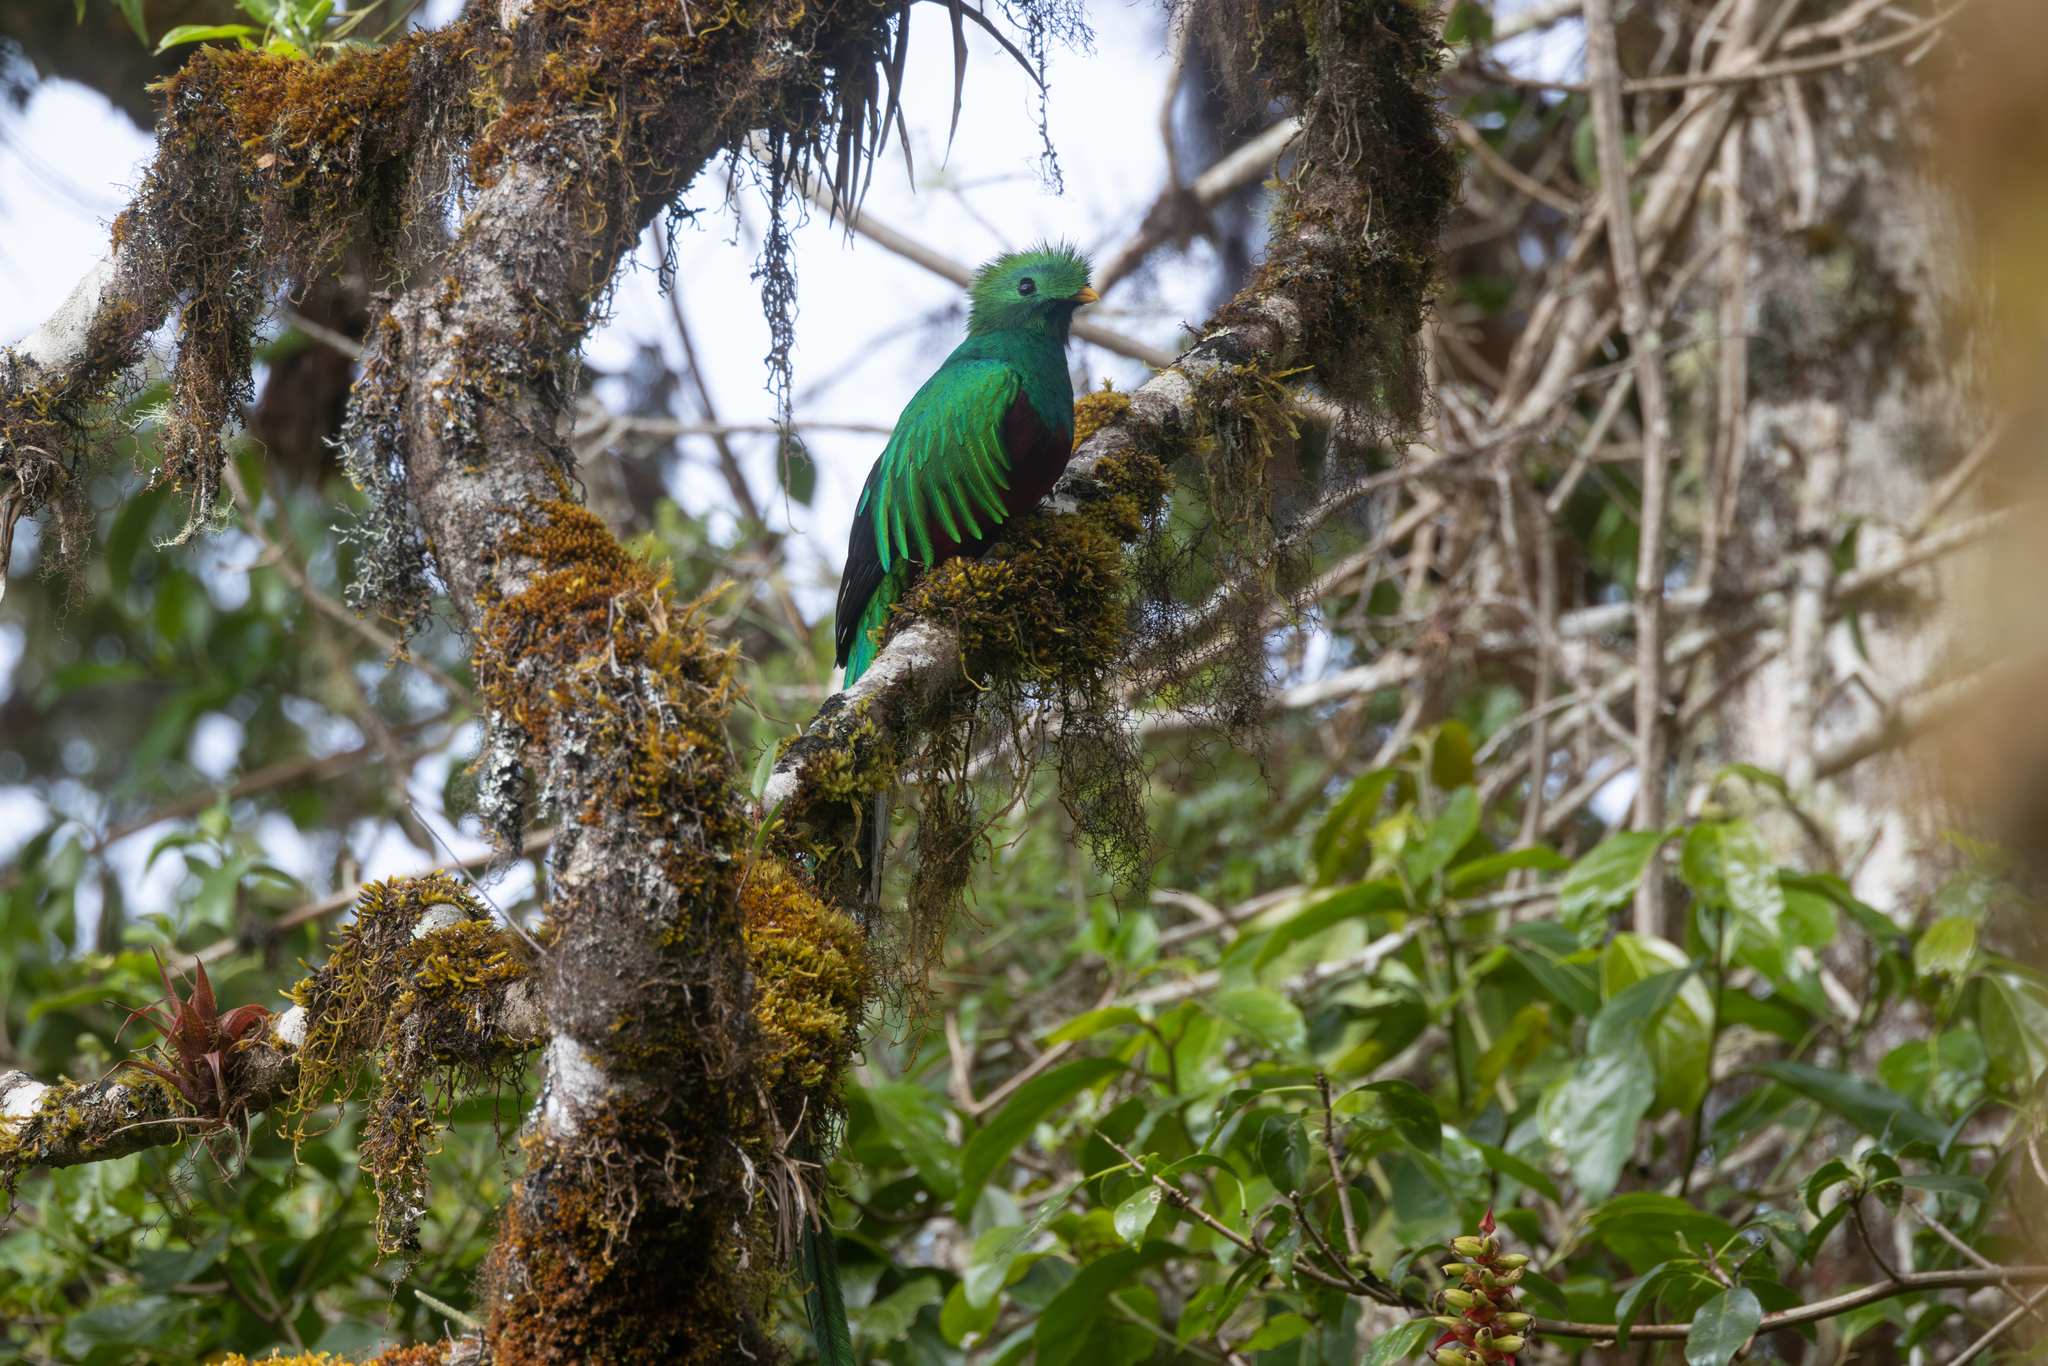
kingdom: Animalia
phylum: Chordata
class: Aves
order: Trogoniformes
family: Trogonidae
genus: Pharomachrus
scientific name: Pharomachrus mocinno
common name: Resplendent quetzal
